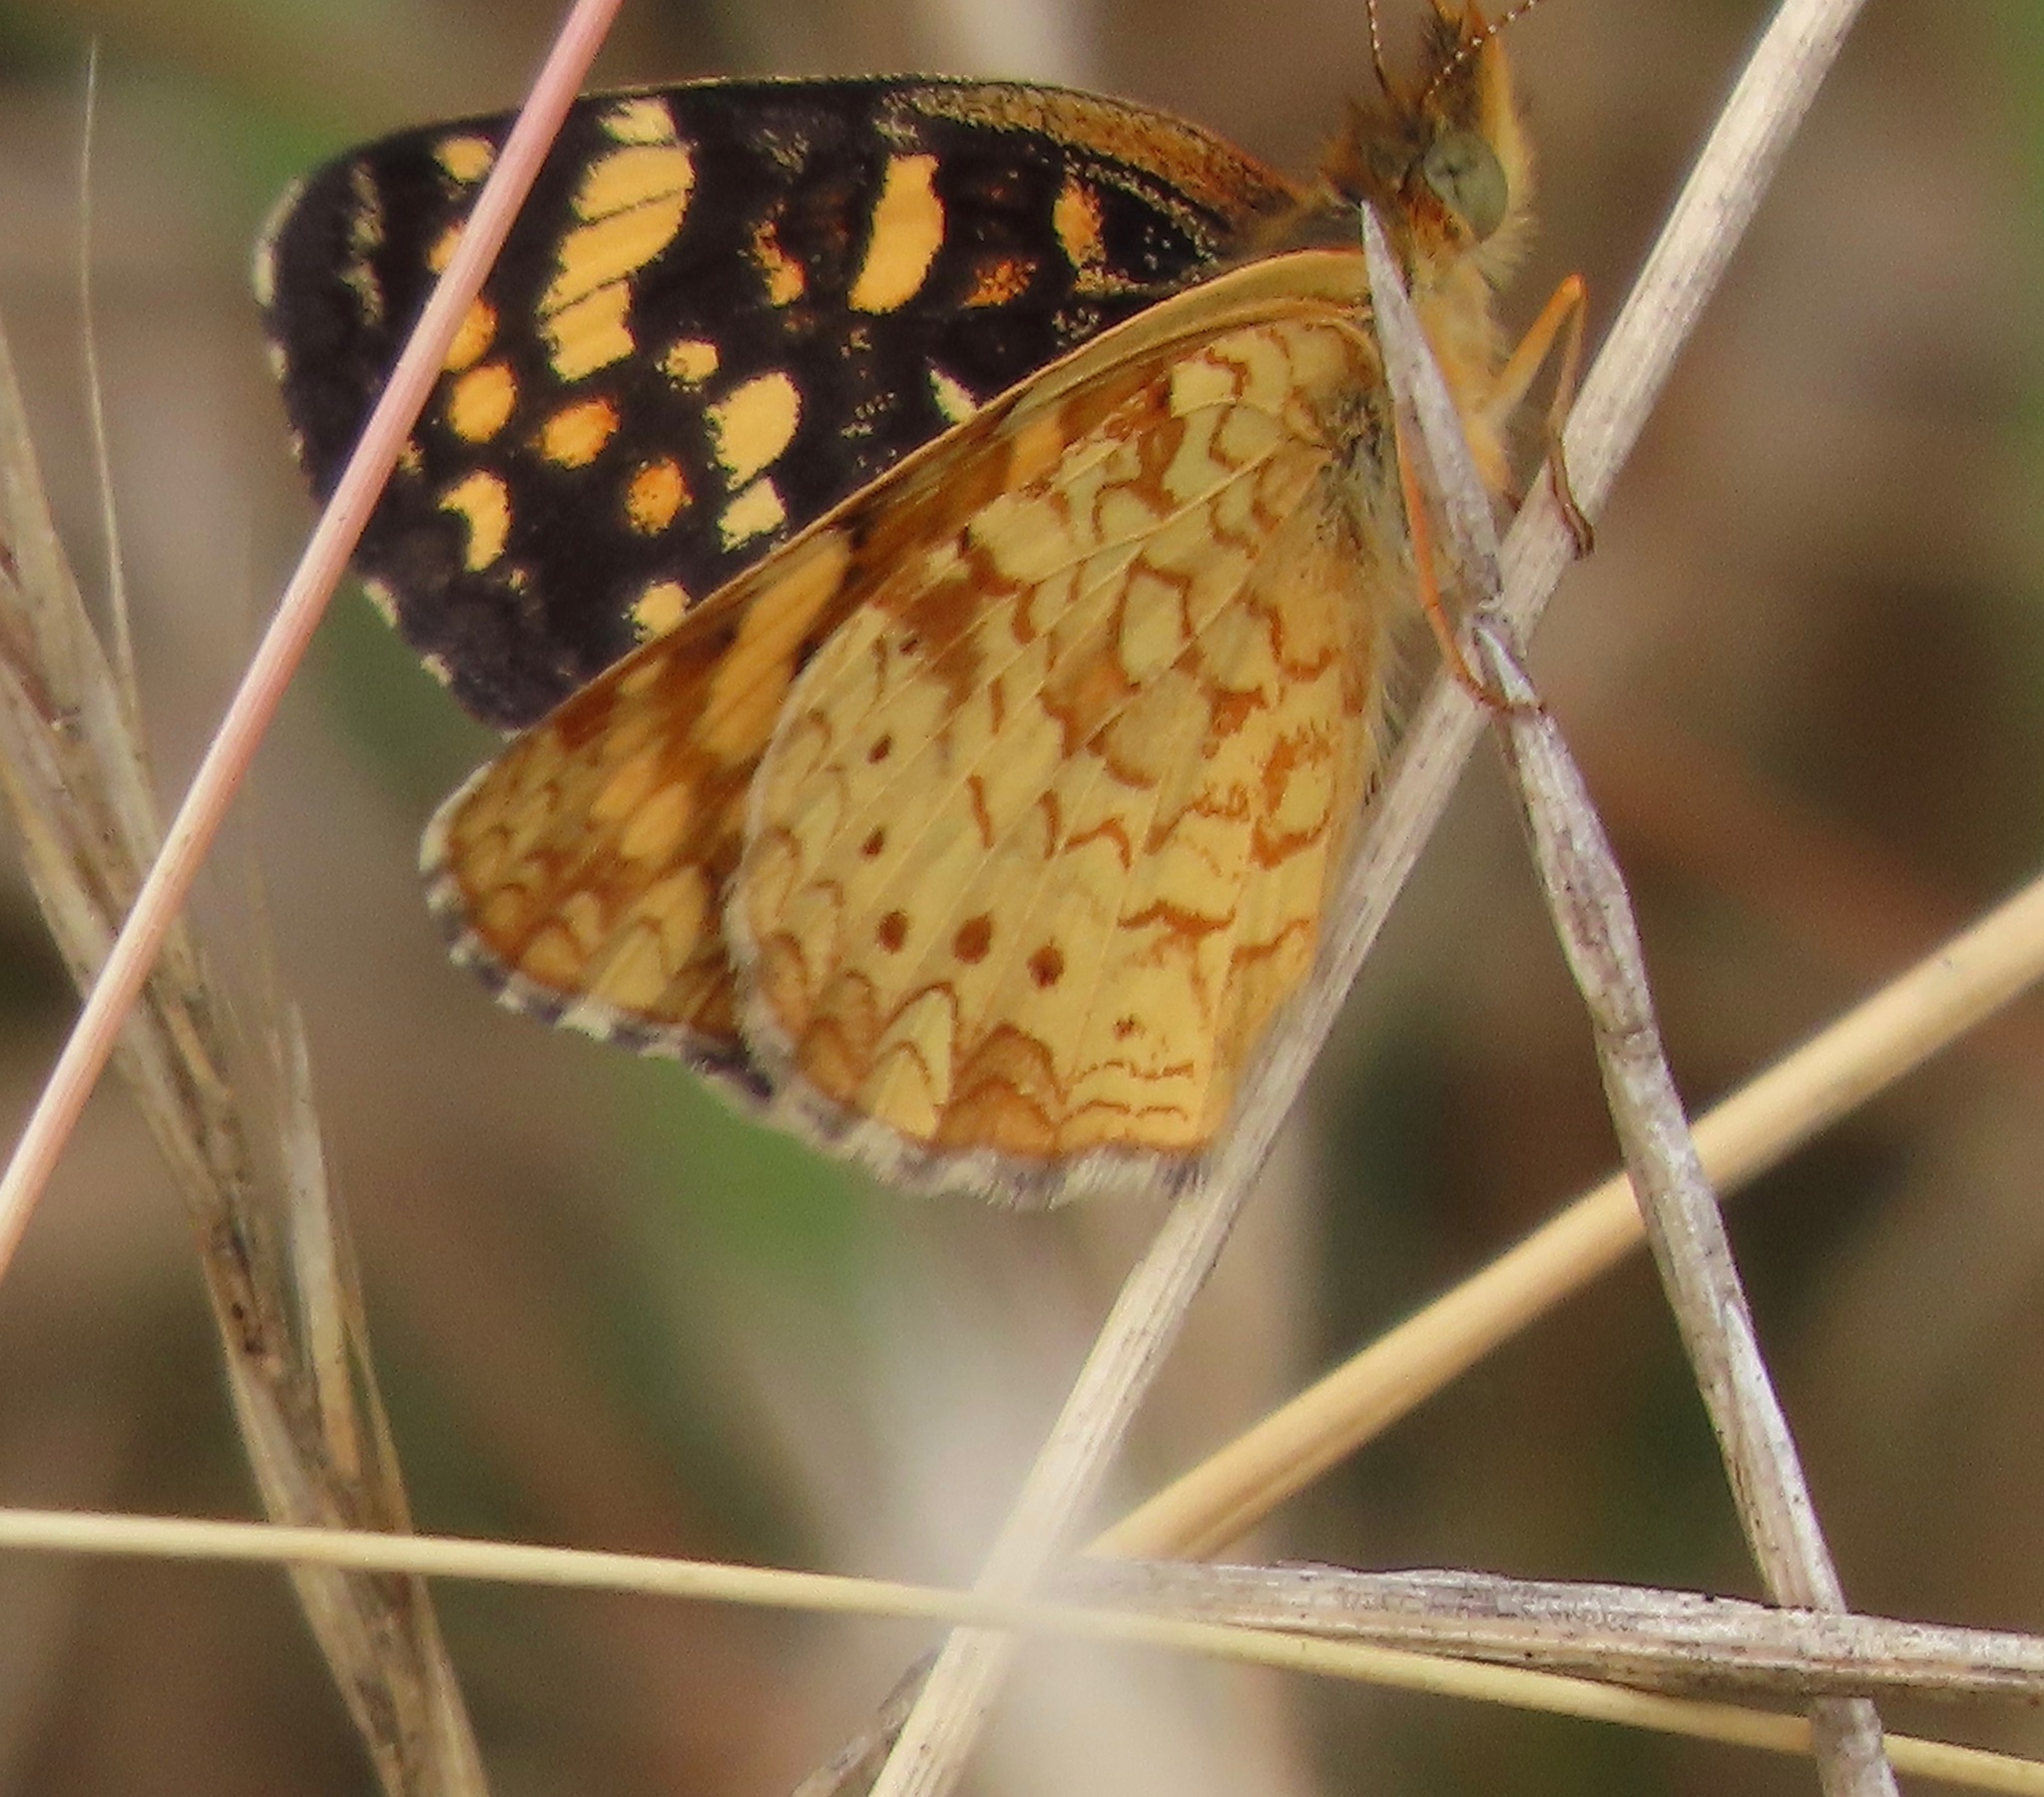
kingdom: Animalia
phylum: Arthropoda
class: Insecta
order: Lepidoptera
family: Nymphalidae
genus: Phyciodes
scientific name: Phyciodes tharos
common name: Pearl crescent
